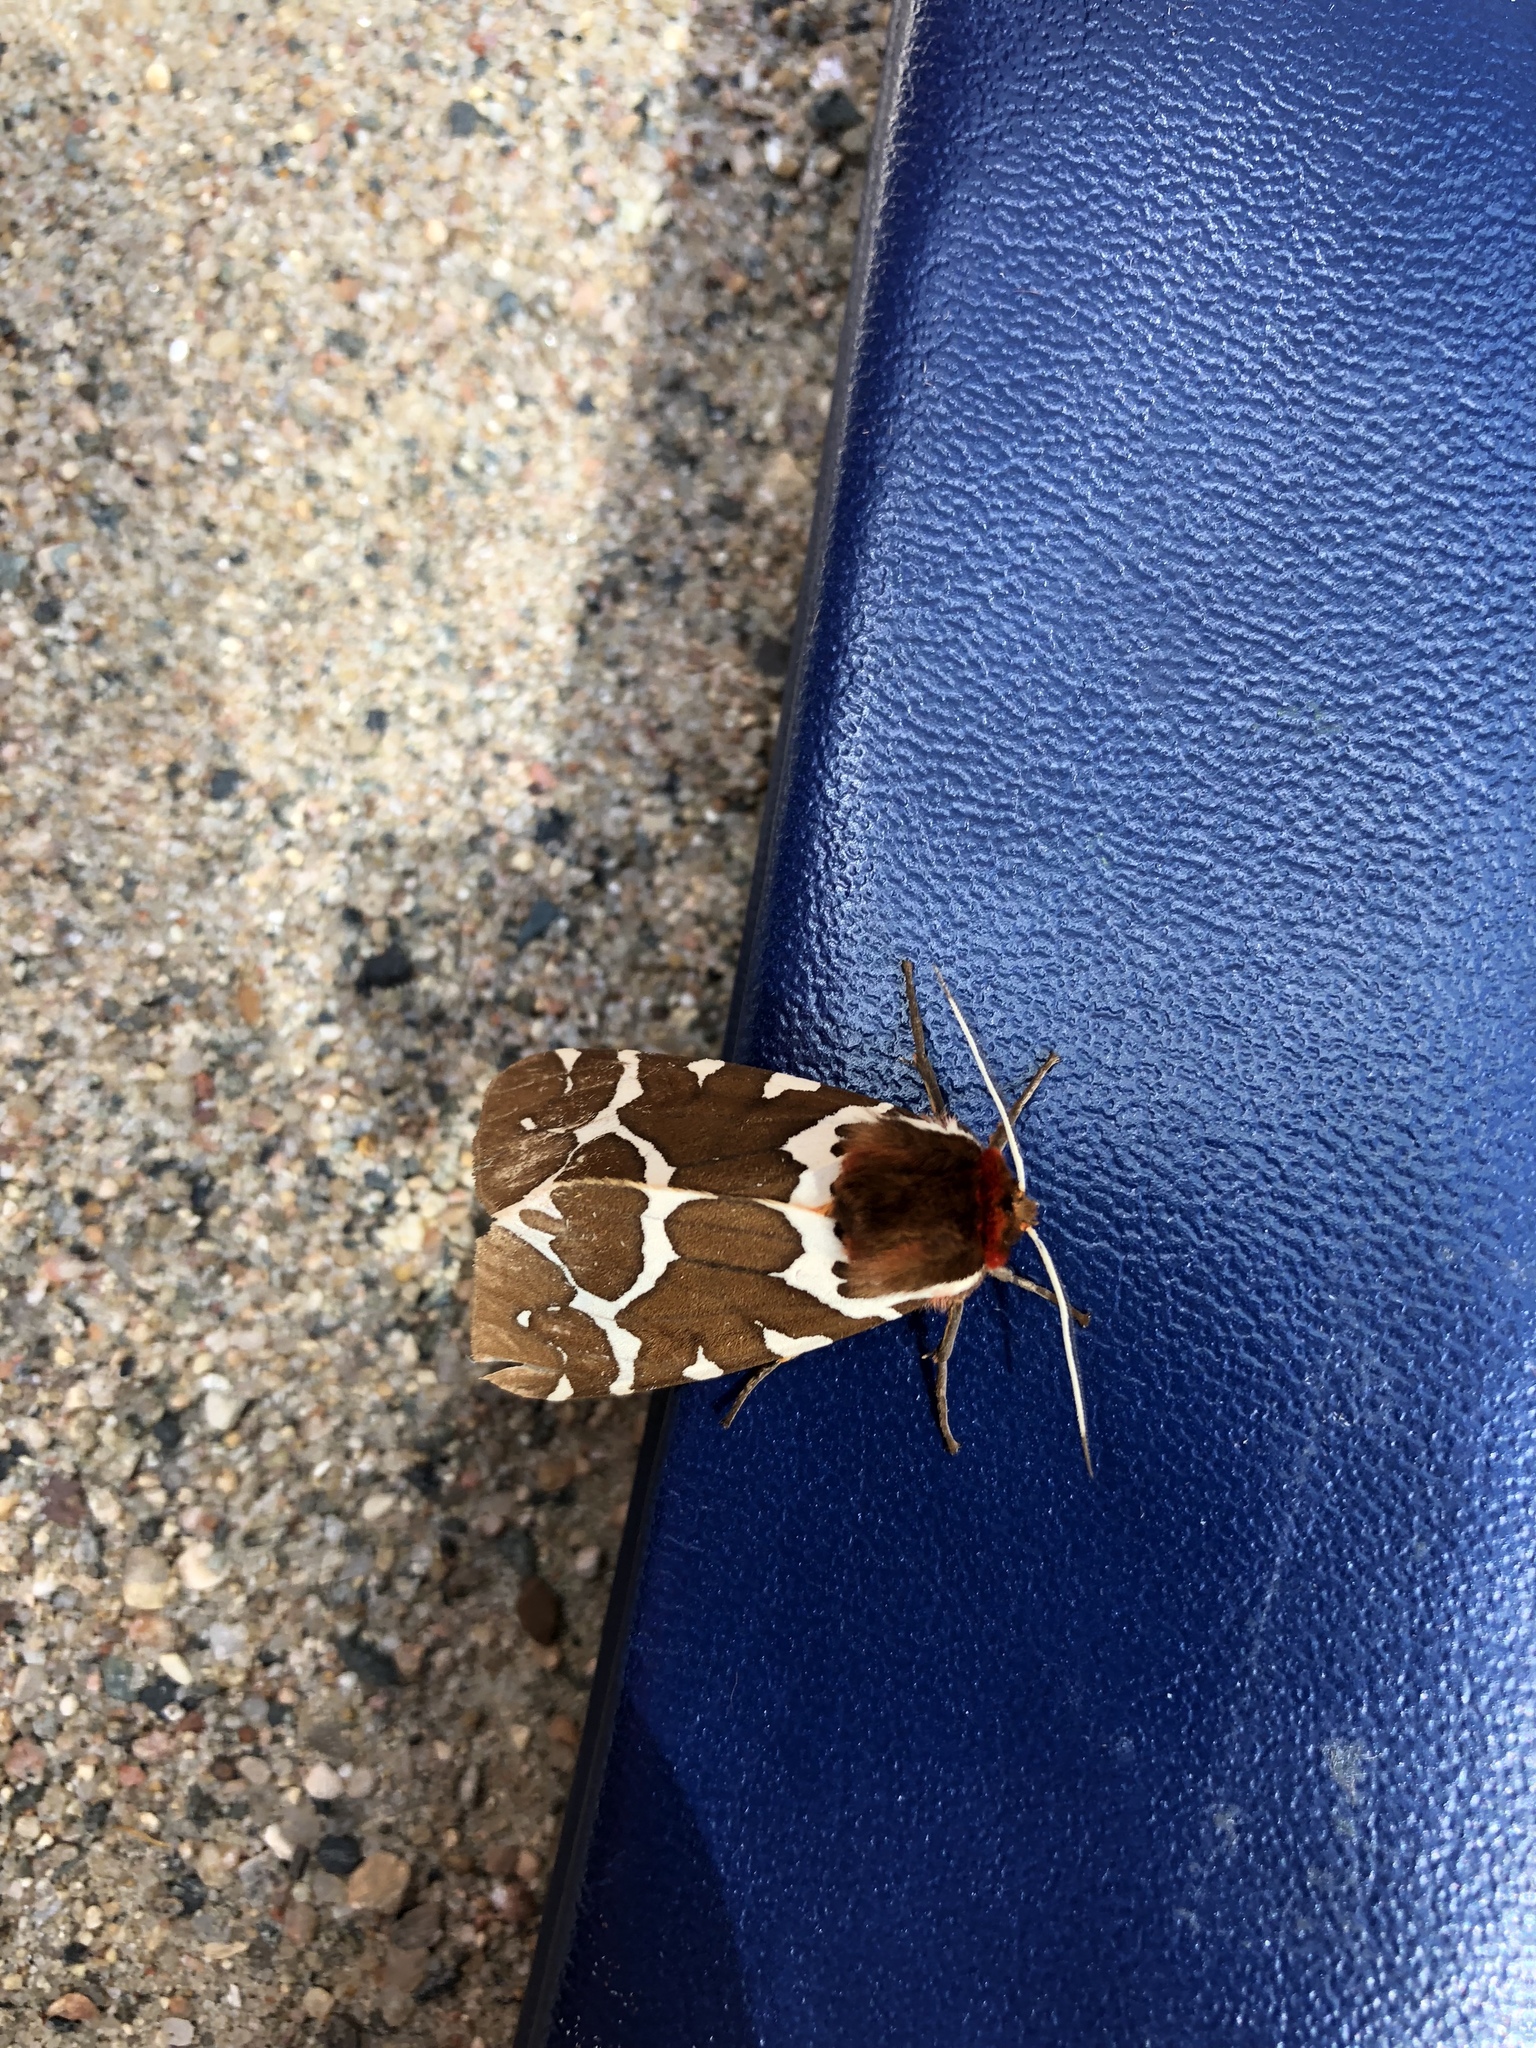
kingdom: Animalia
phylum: Arthropoda
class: Insecta
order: Lepidoptera
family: Erebidae
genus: Arctia
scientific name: Arctia caja
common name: Garden tiger
